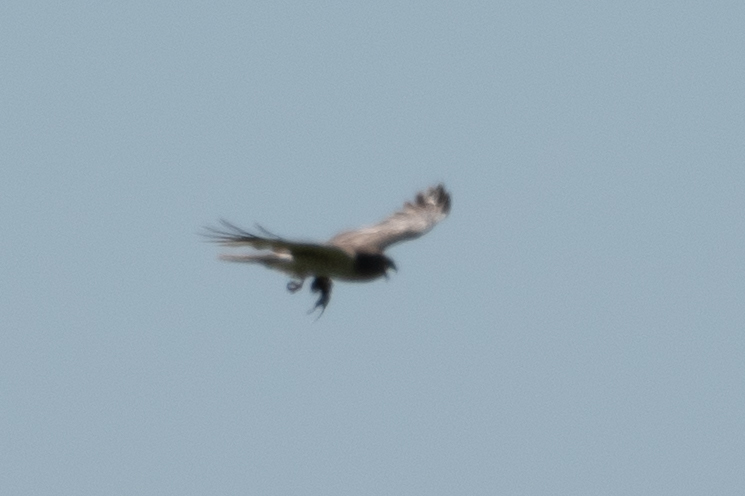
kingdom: Animalia
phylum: Chordata
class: Aves
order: Accipitriformes
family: Accipitridae
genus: Circus
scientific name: Circus cyaneus
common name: Hen harrier
